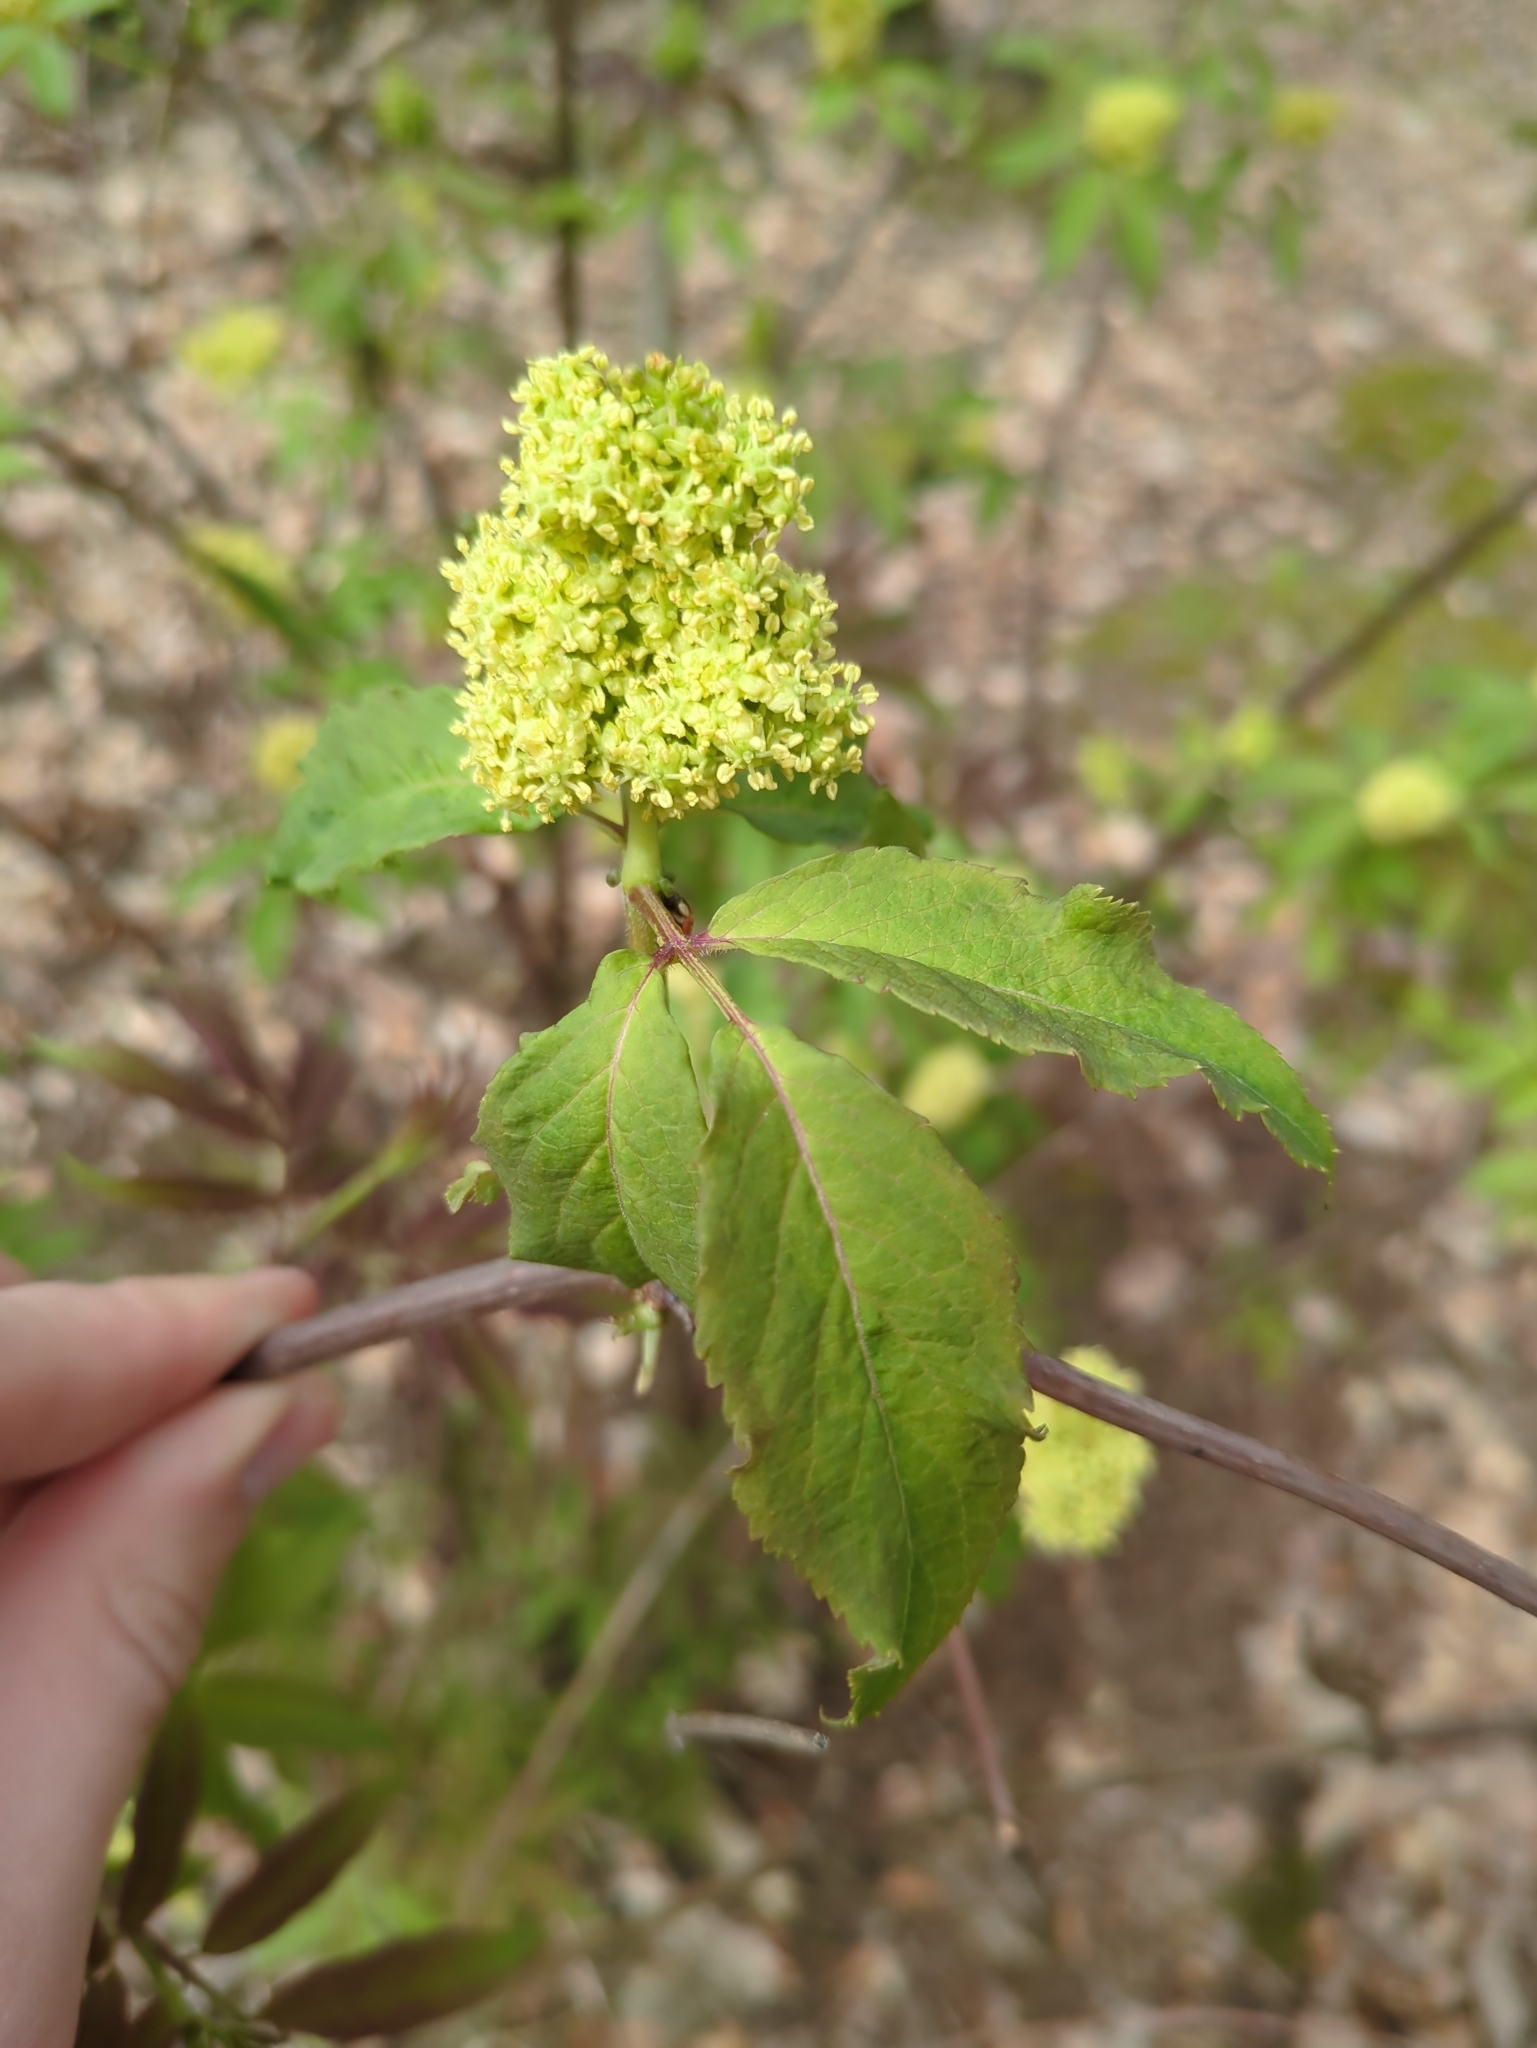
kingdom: Plantae
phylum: Tracheophyta
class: Magnoliopsida
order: Dipsacales
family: Viburnaceae
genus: Sambucus
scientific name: Sambucus racemosa
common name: Red-berried elder
